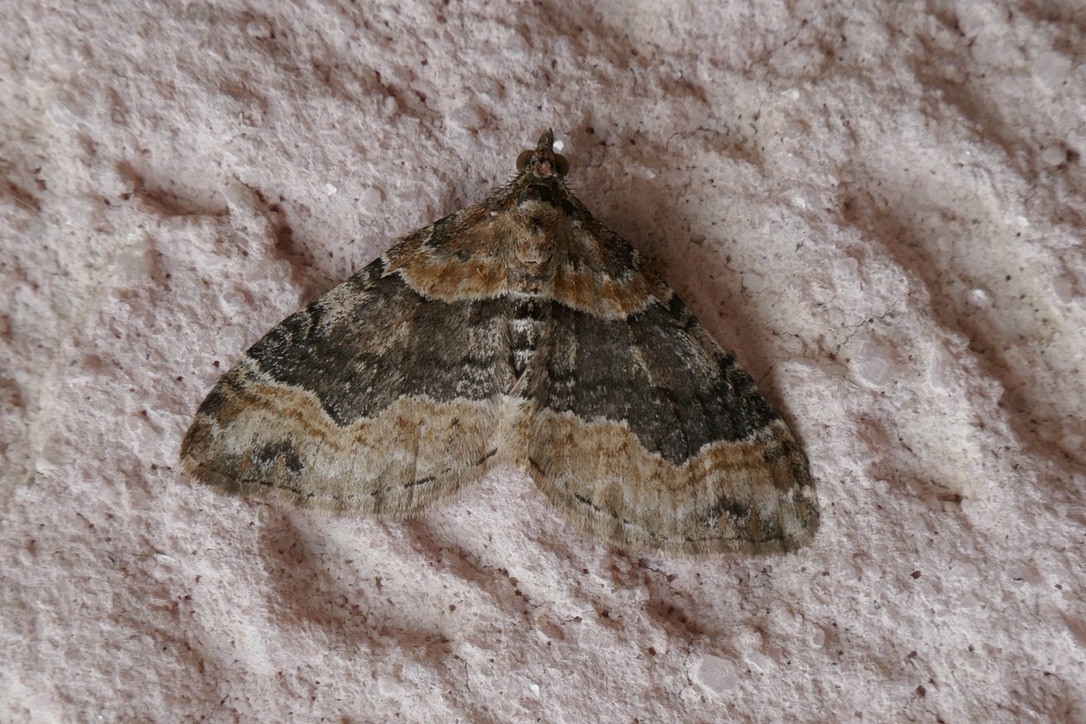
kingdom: Animalia
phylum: Arthropoda
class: Insecta
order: Lepidoptera
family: Geometridae
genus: Xanthorhoe
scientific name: Xanthorhoe ferrugata
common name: Dark-barred twin-spot carpet
